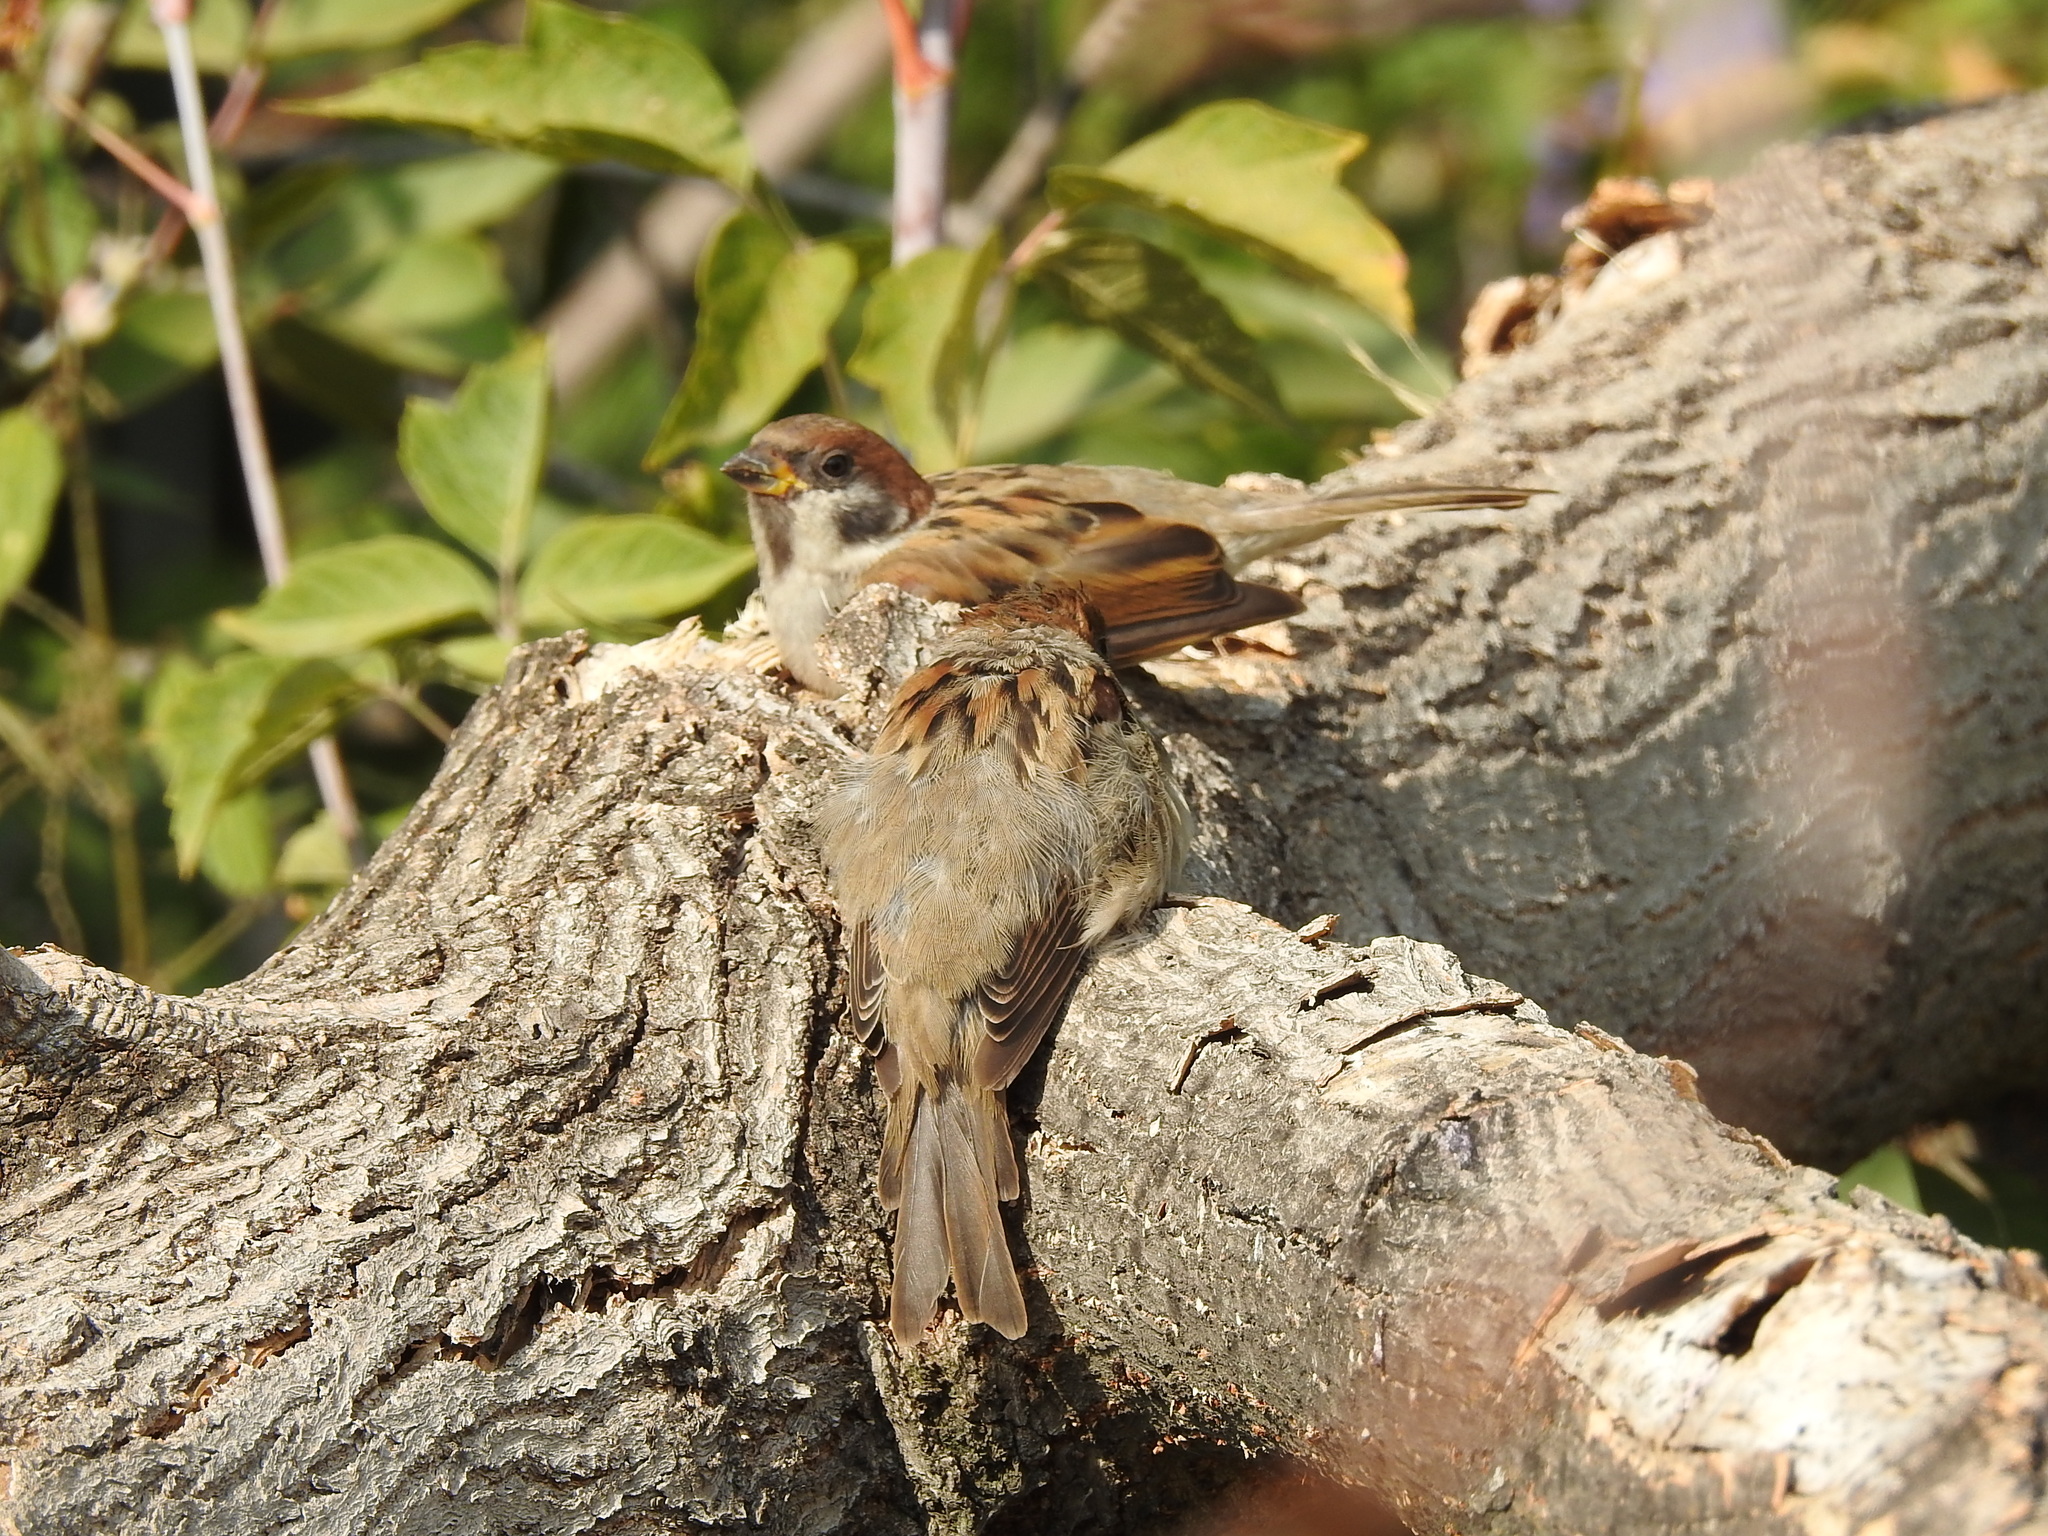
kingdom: Animalia
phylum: Chordata
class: Aves
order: Passeriformes
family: Passeridae
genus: Passer
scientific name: Passer montanus
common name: Eurasian tree sparrow
